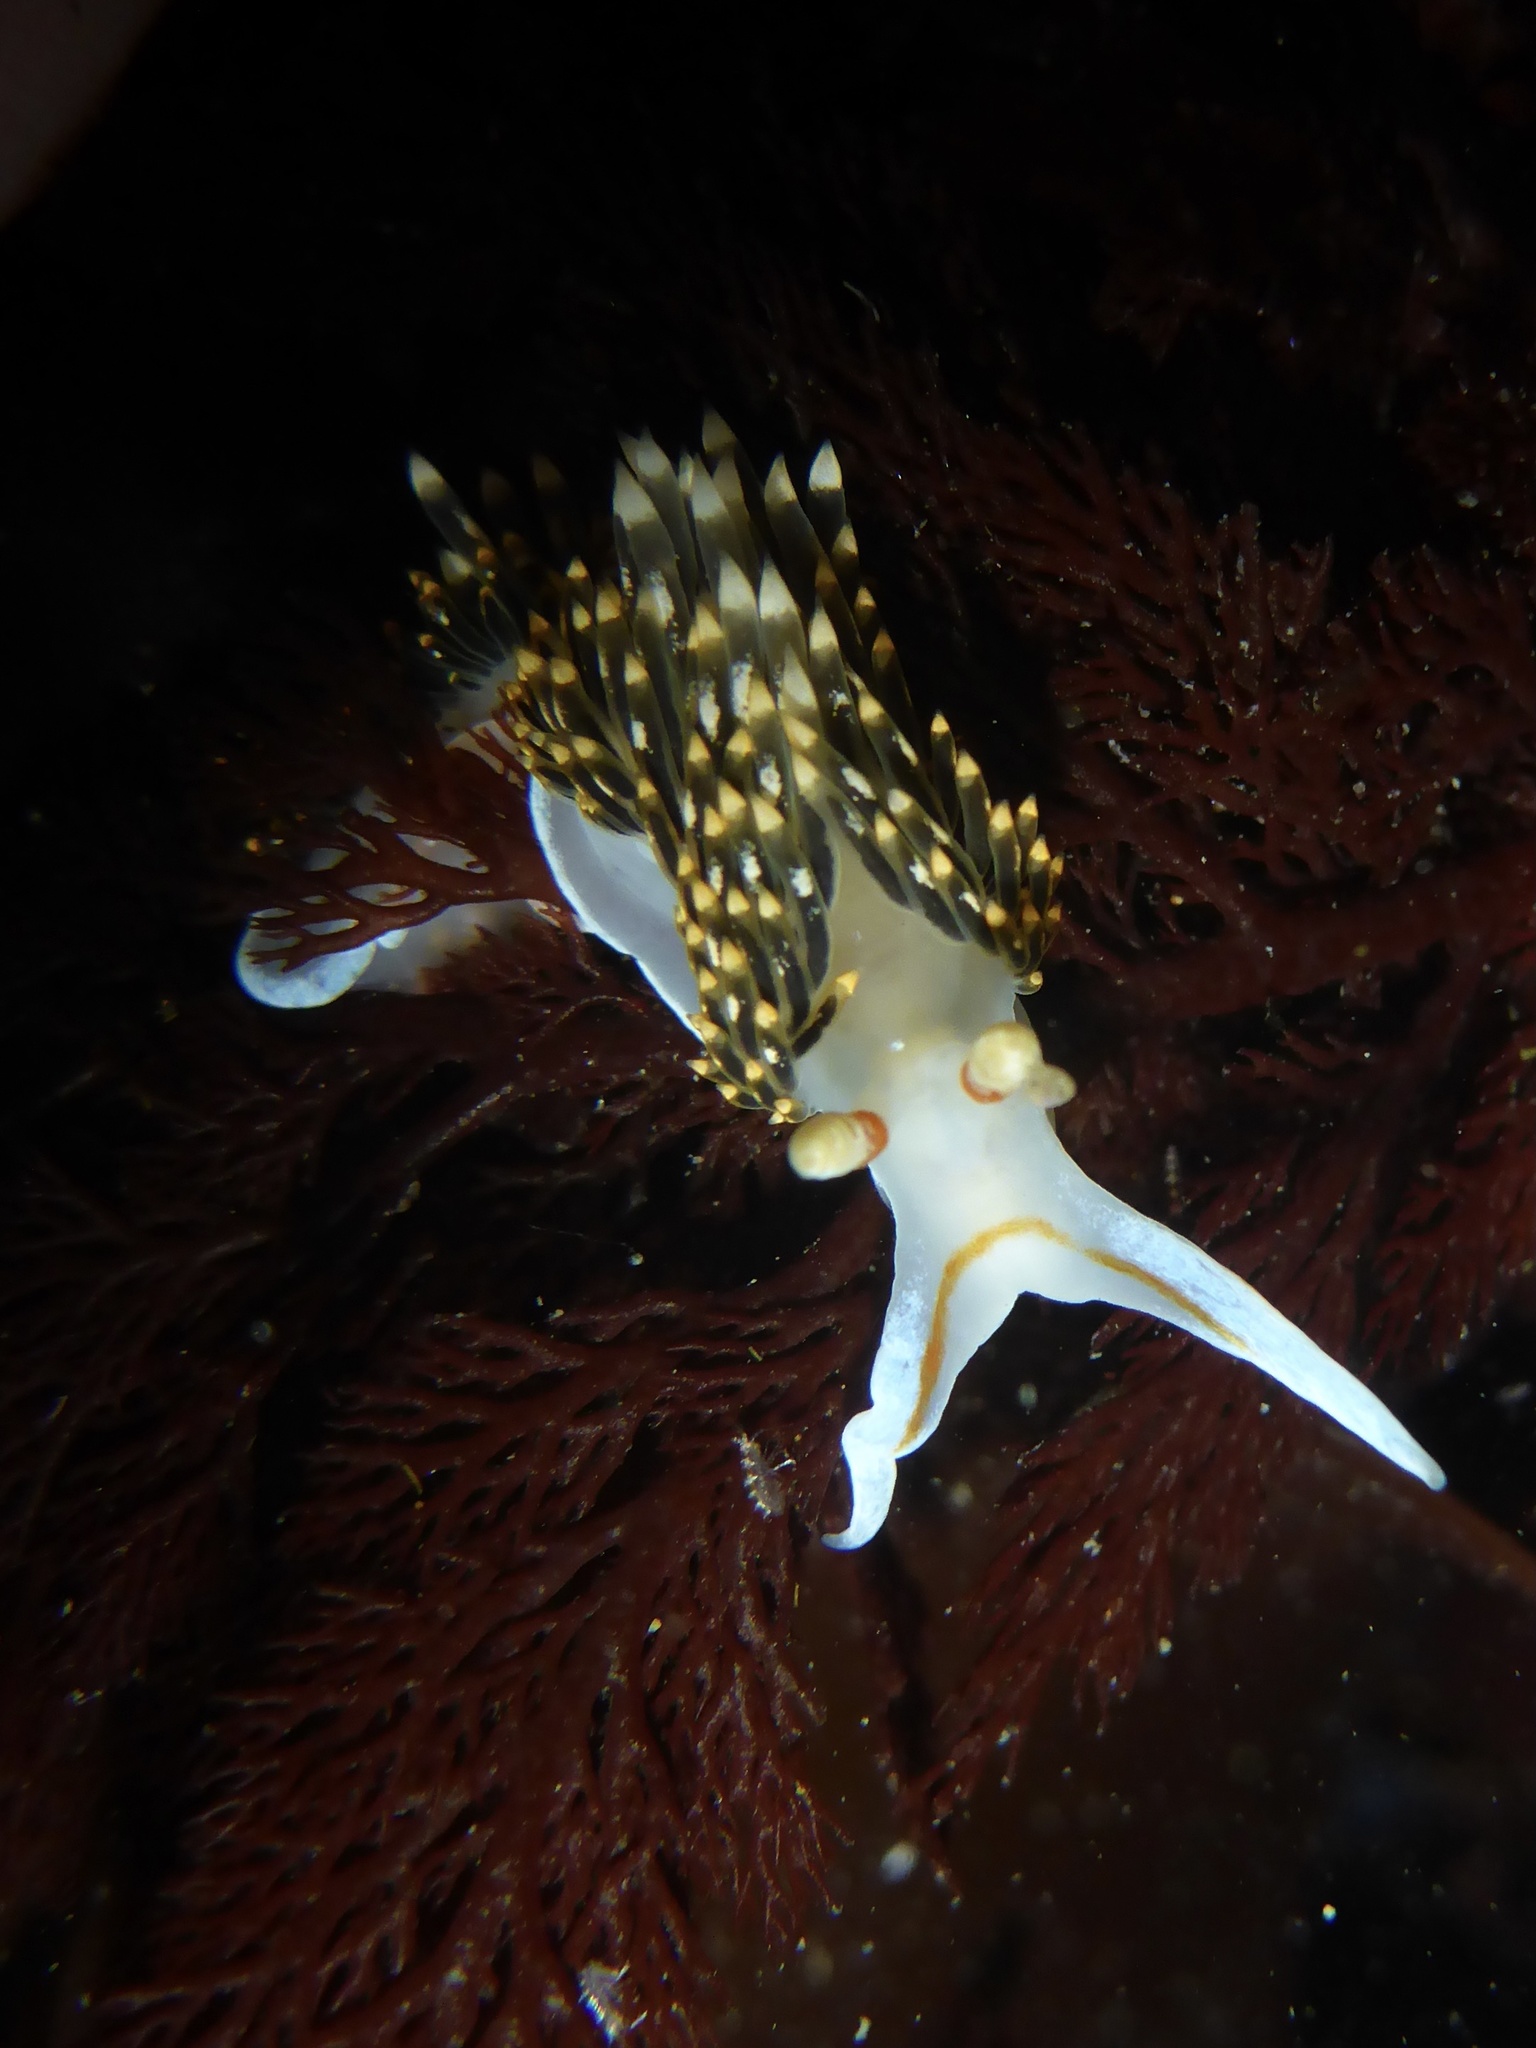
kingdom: Animalia
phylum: Mollusca
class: Gastropoda
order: Nudibranchia
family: Facelinidae
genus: Phidiana
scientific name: Phidiana hiltoni
